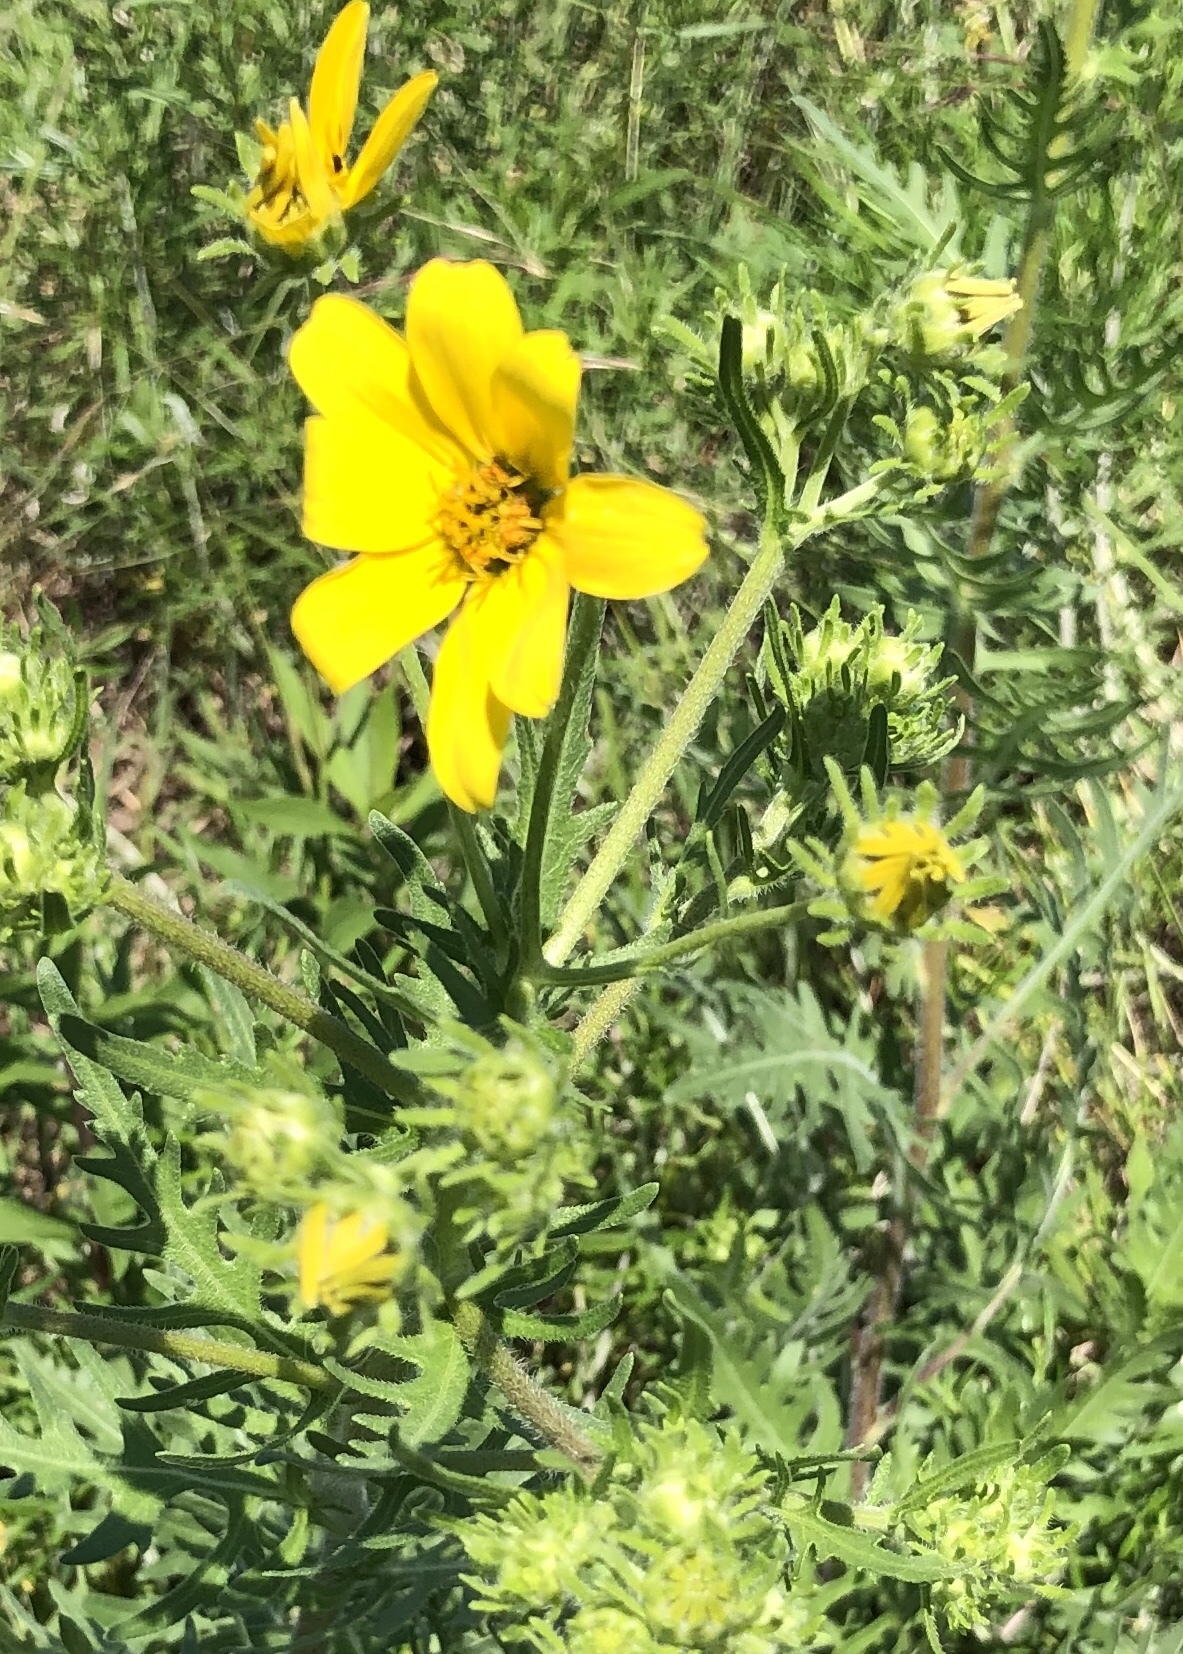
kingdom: Plantae
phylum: Tracheophyta
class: Magnoliopsida
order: Asterales
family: Asteraceae
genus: Engelmannia
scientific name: Engelmannia peristenia
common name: Engelmann's daisy
